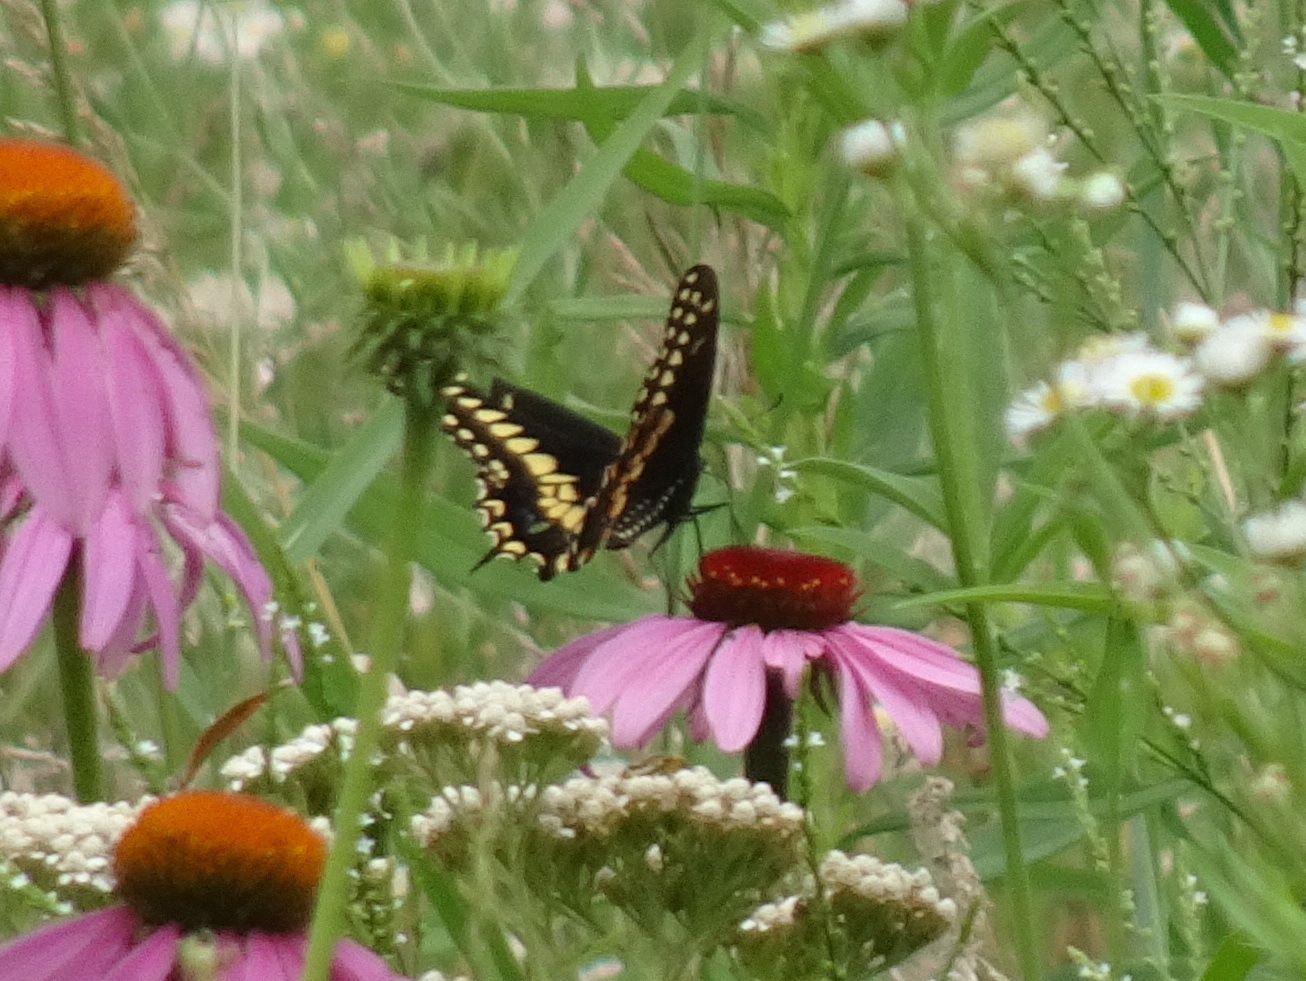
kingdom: Animalia
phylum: Arthropoda
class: Insecta
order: Lepidoptera
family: Papilionidae
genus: Papilio
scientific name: Papilio polyxenes
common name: Black swallowtail
